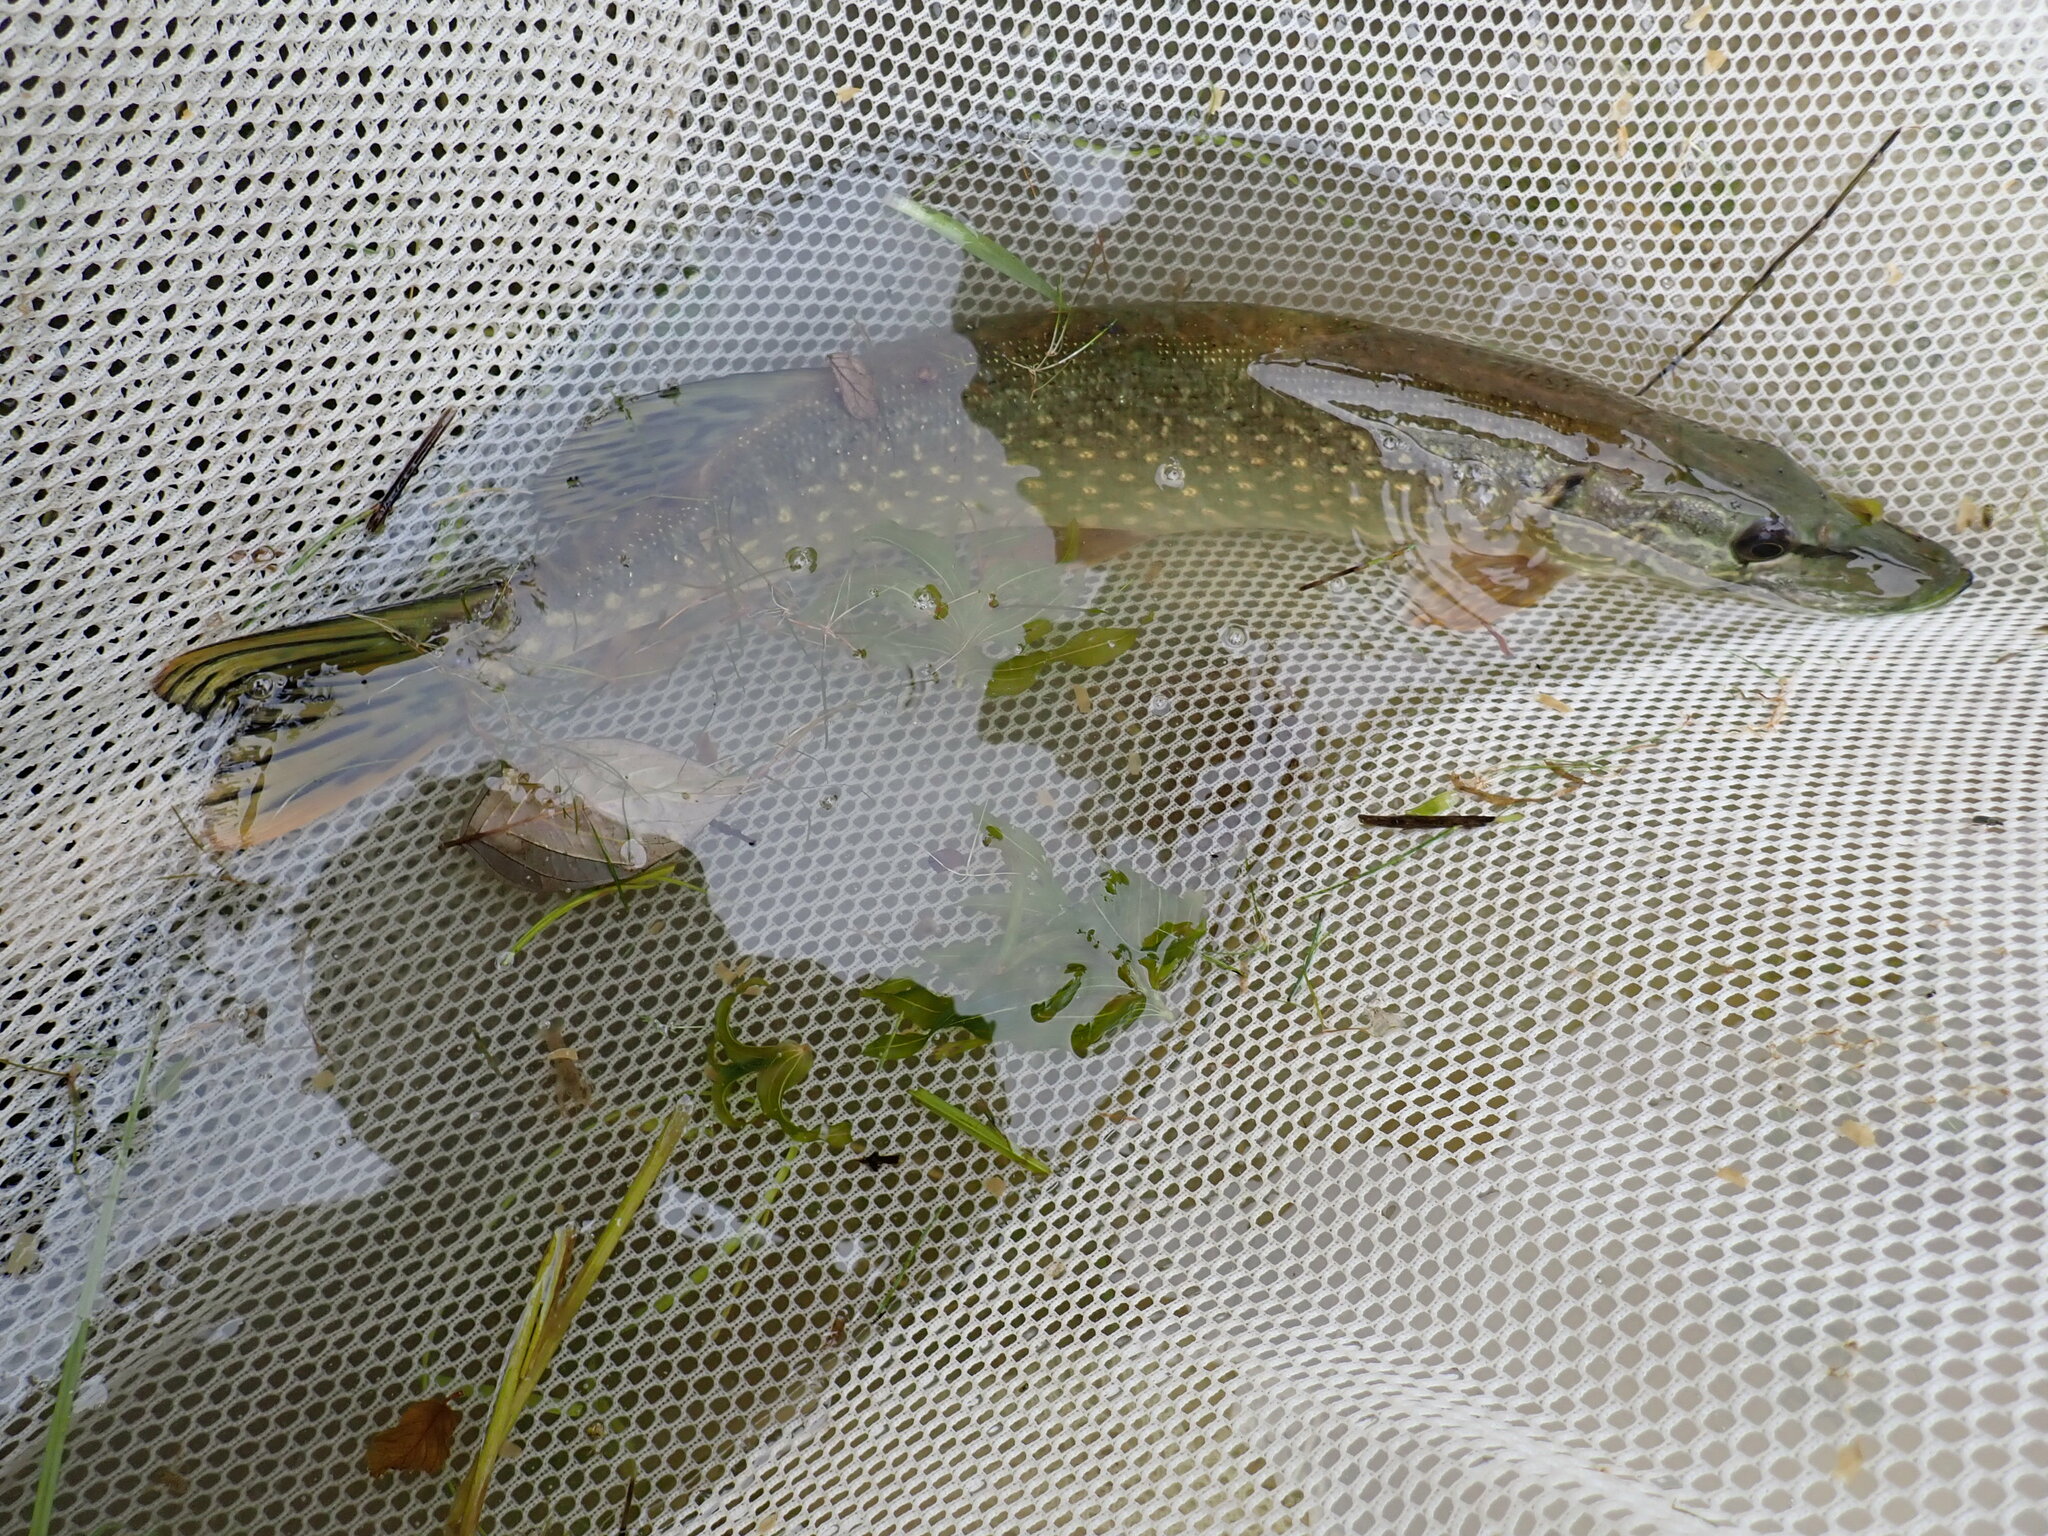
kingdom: Animalia
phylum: Chordata
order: Esociformes
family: Esocidae
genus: Esox
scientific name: Esox lucius
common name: Northern pike
